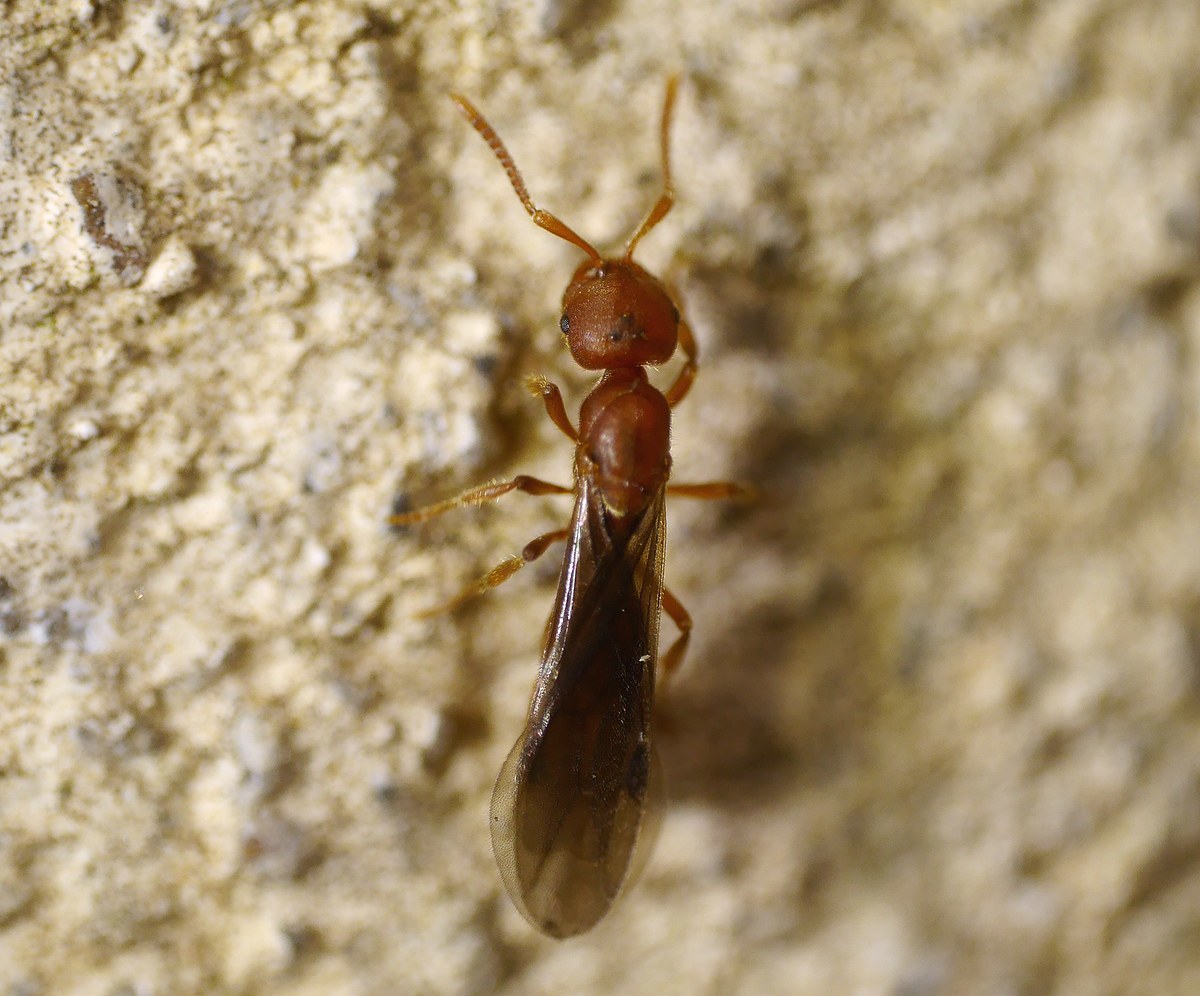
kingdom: Animalia
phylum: Arthropoda
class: Insecta
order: Hymenoptera
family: Formicidae
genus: Proceratium
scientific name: Proceratium melinum
